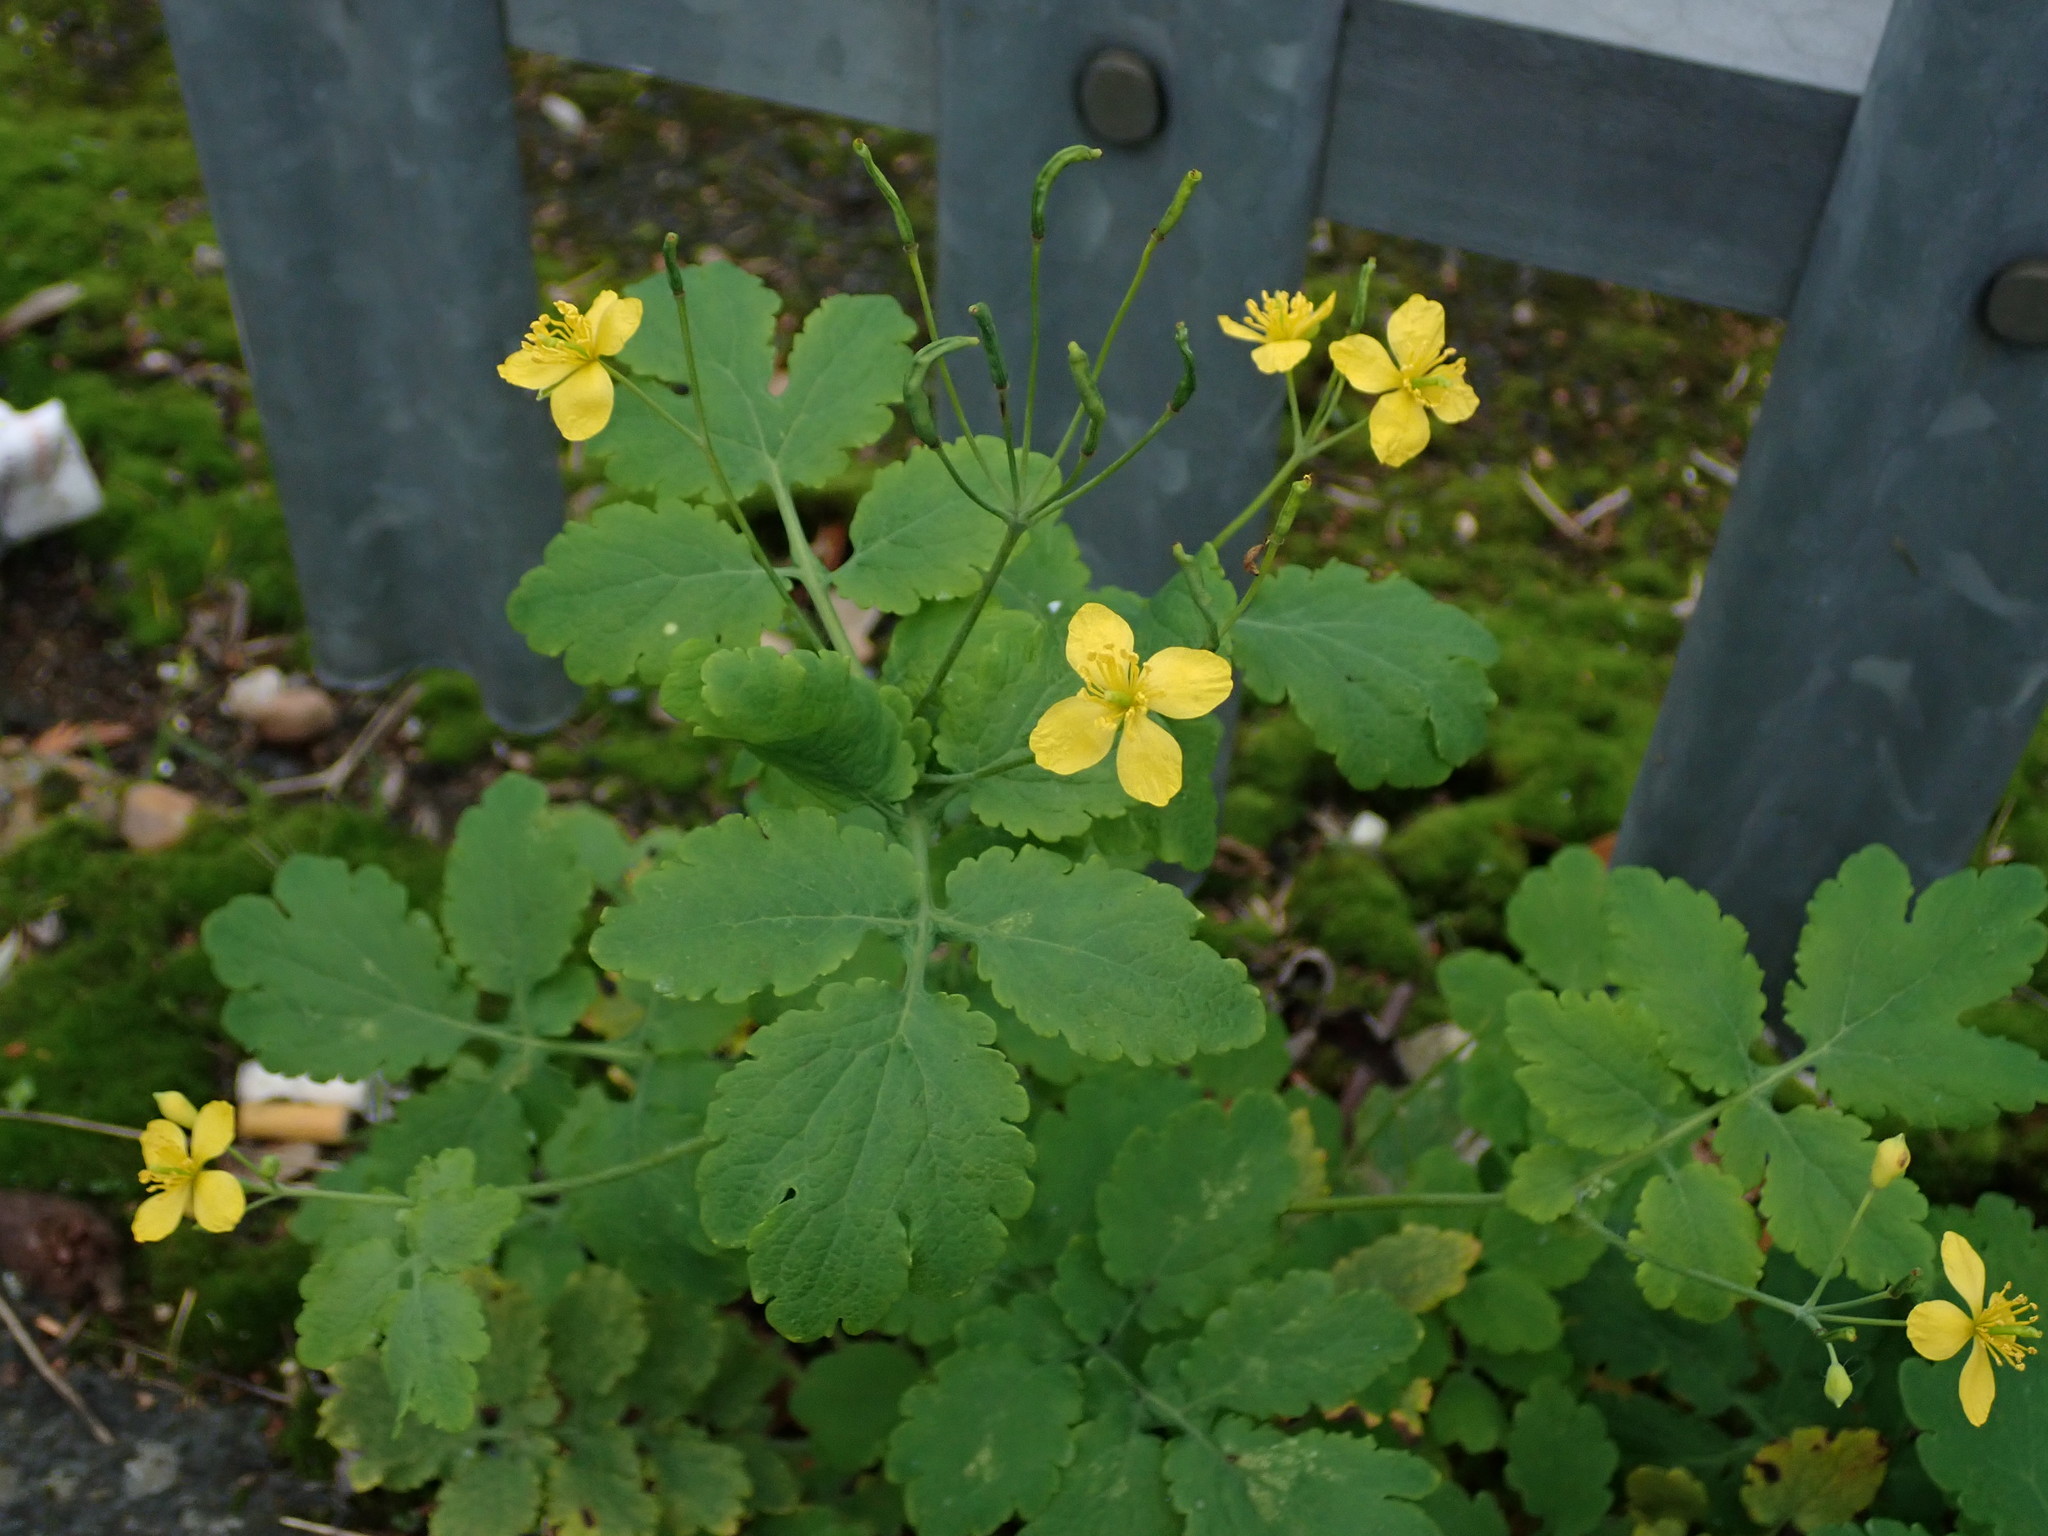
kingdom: Plantae
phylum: Tracheophyta
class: Magnoliopsida
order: Ranunculales
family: Papaveraceae
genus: Chelidonium
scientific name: Chelidonium majus
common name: Greater celandine
